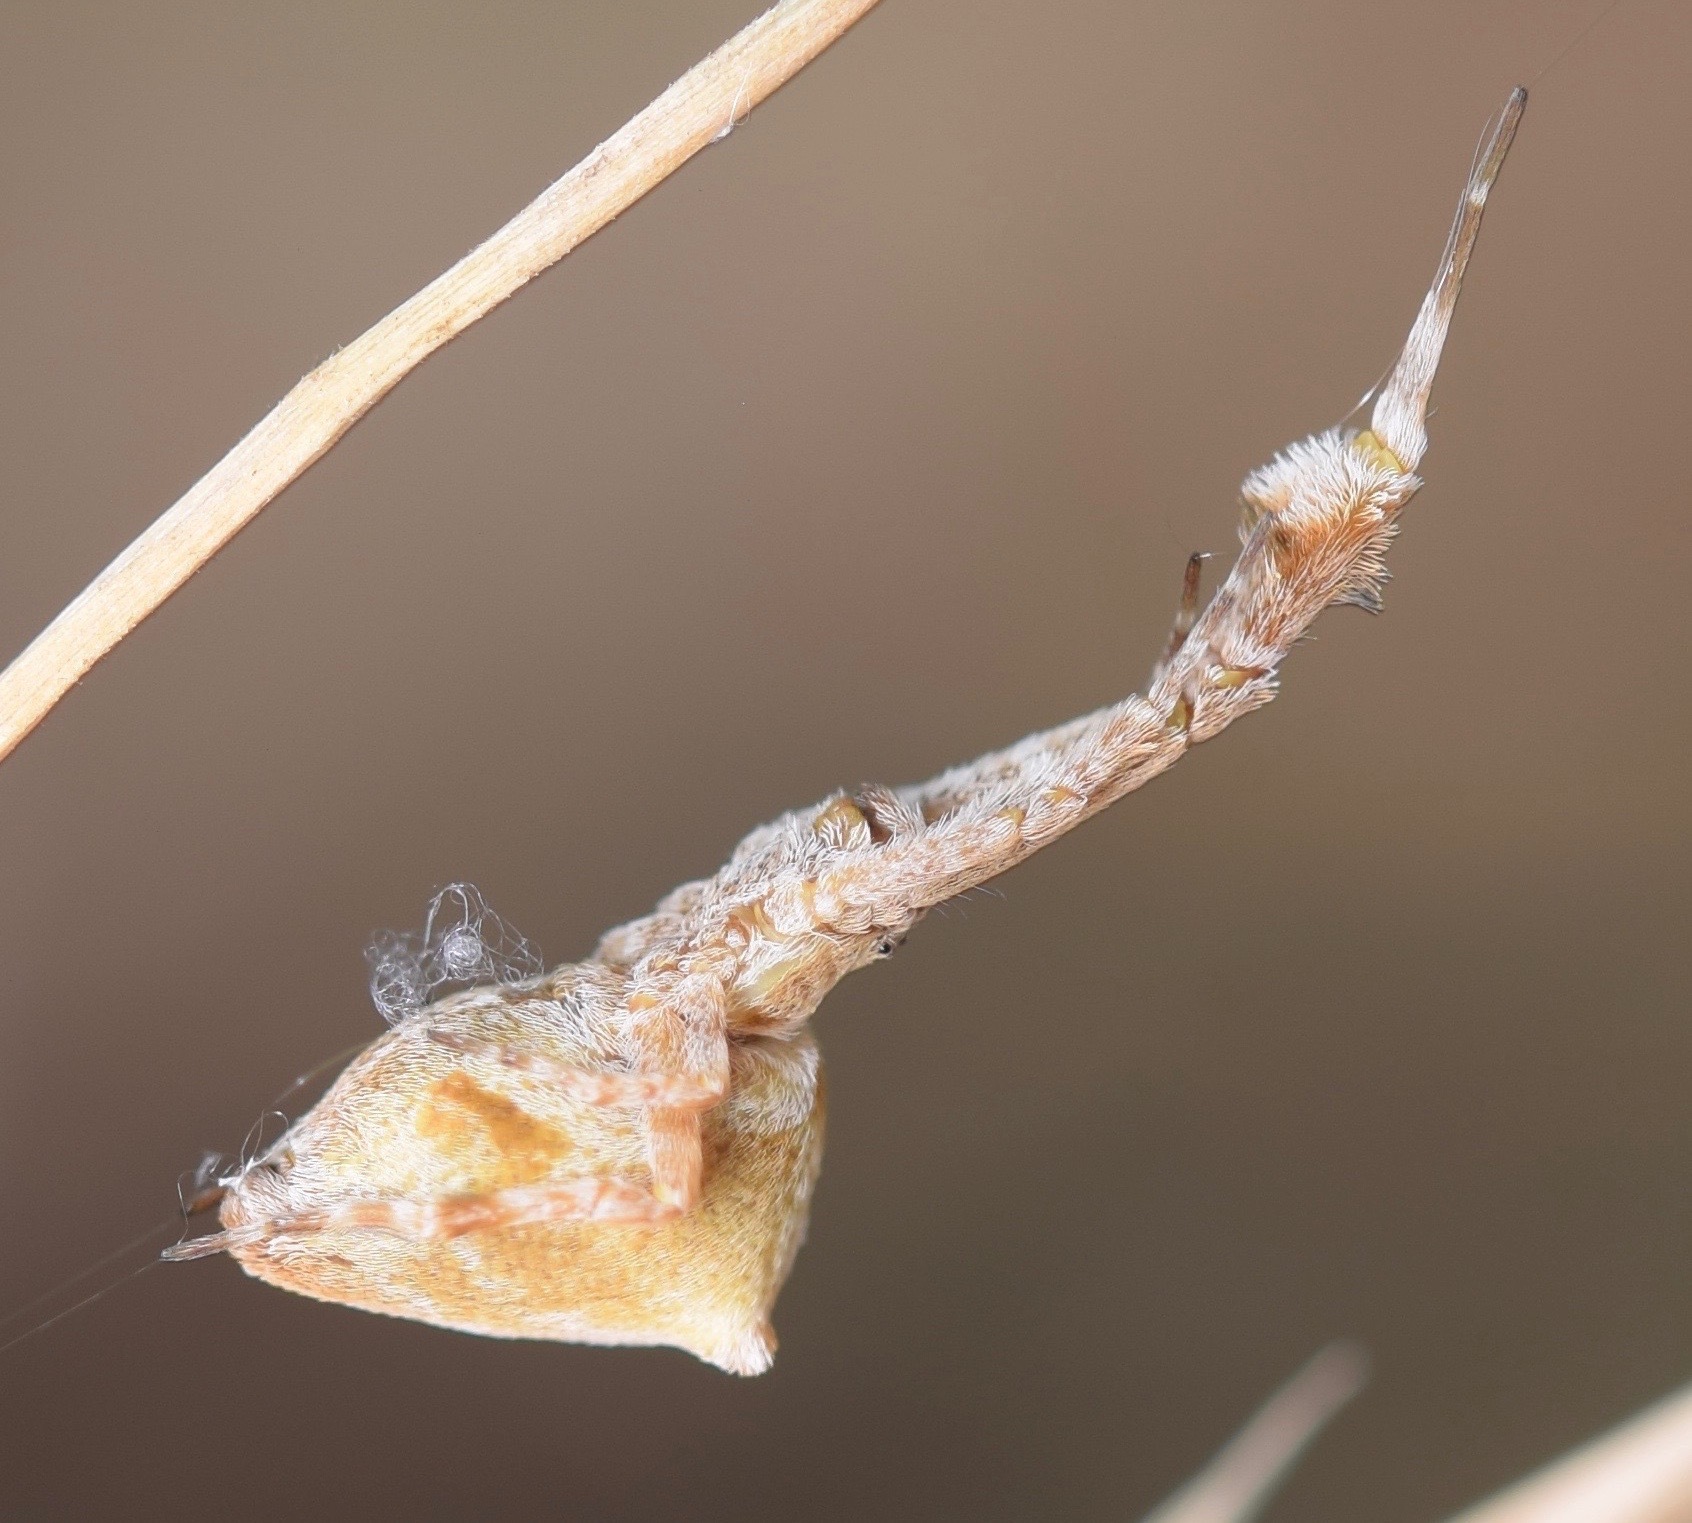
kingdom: Animalia
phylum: Arthropoda
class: Arachnida
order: Araneae
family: Uloboridae
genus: Uloborus
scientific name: Uloborus glomosus
